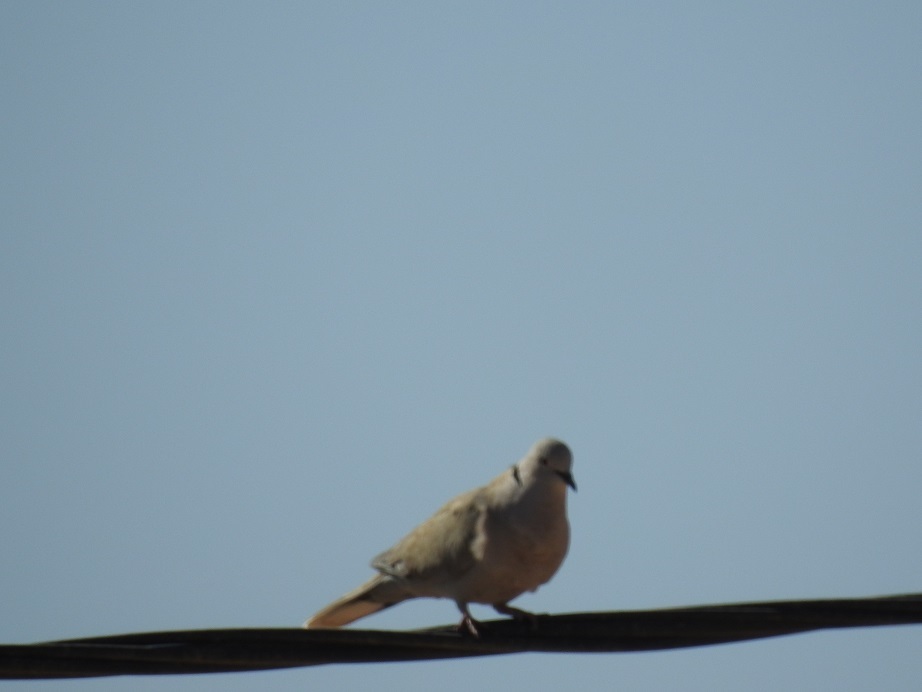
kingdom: Animalia
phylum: Chordata
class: Aves
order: Columbiformes
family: Columbidae
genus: Streptopelia
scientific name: Streptopelia decaocto
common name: Eurasian collared dove
